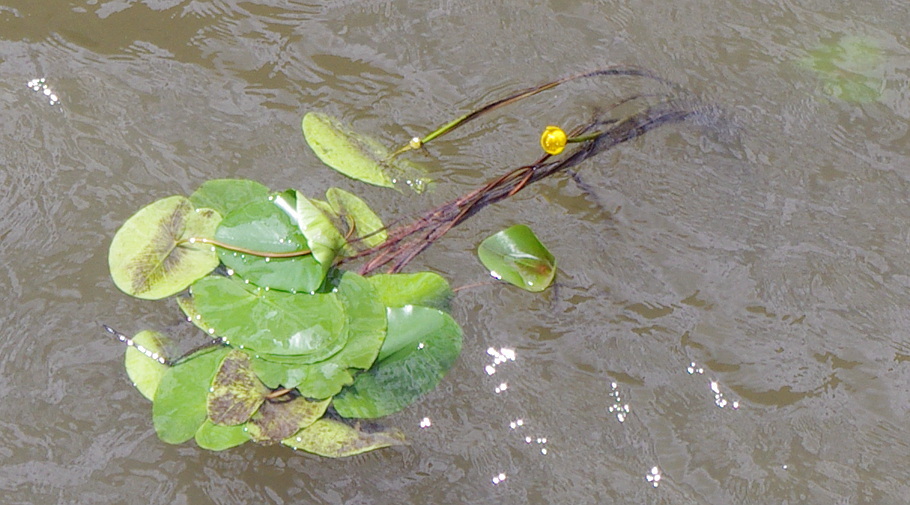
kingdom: Plantae
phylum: Tracheophyta
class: Magnoliopsida
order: Nymphaeales
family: Nymphaeaceae
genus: Nuphar
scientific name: Nuphar lutea
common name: Yellow water-lily
